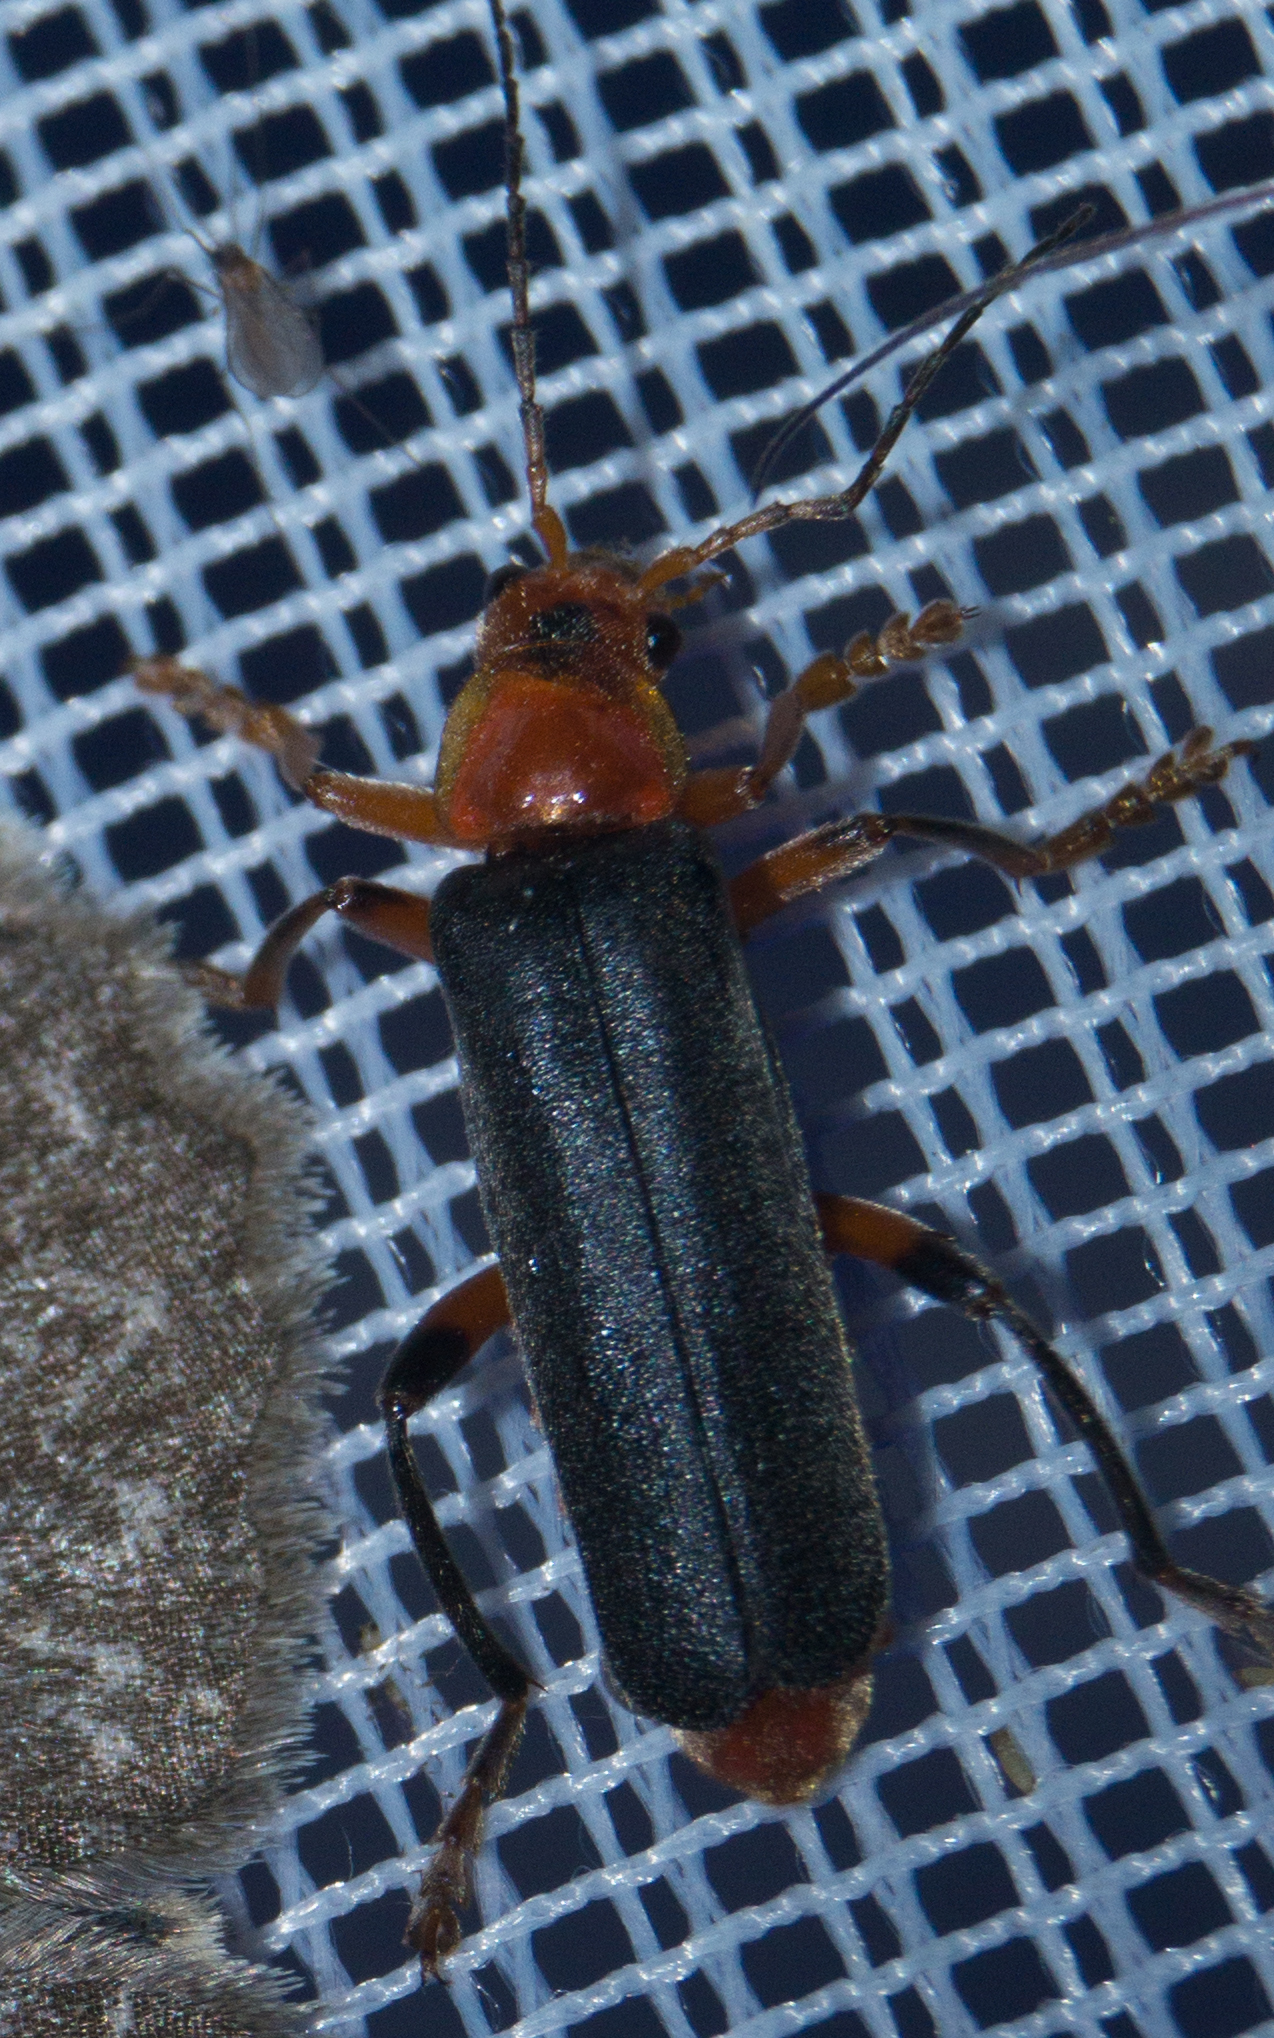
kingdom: Animalia
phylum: Arthropoda
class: Insecta
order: Coleoptera
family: Cantharidae
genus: Cantharis
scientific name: Cantharis livida
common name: Livid soldier beetle
